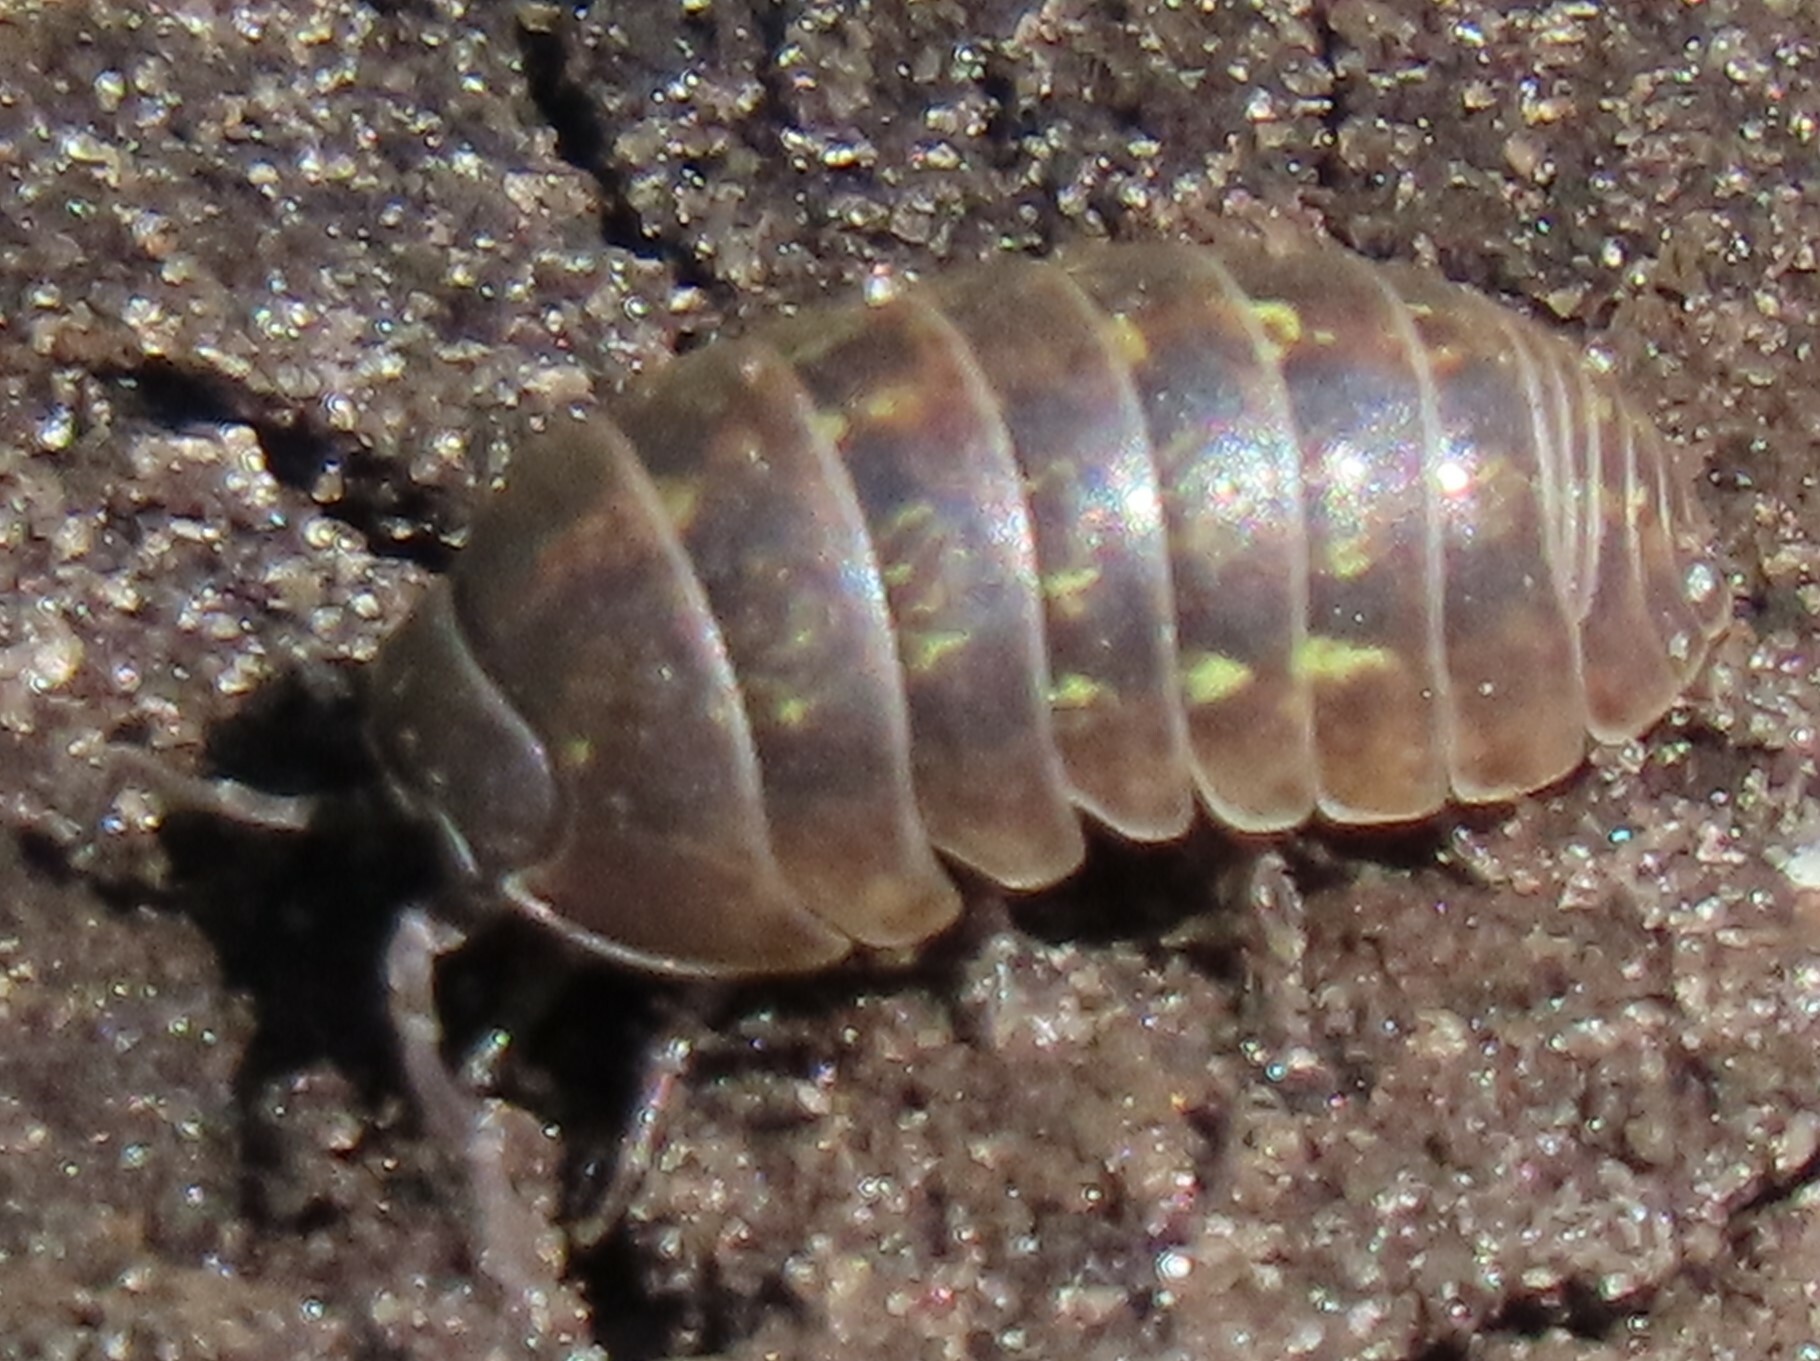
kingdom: Animalia
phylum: Arthropoda
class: Malacostraca
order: Isopoda
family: Armadillidiidae
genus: Armadillidium
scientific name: Armadillidium vulgare
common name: Common pill woodlouse
